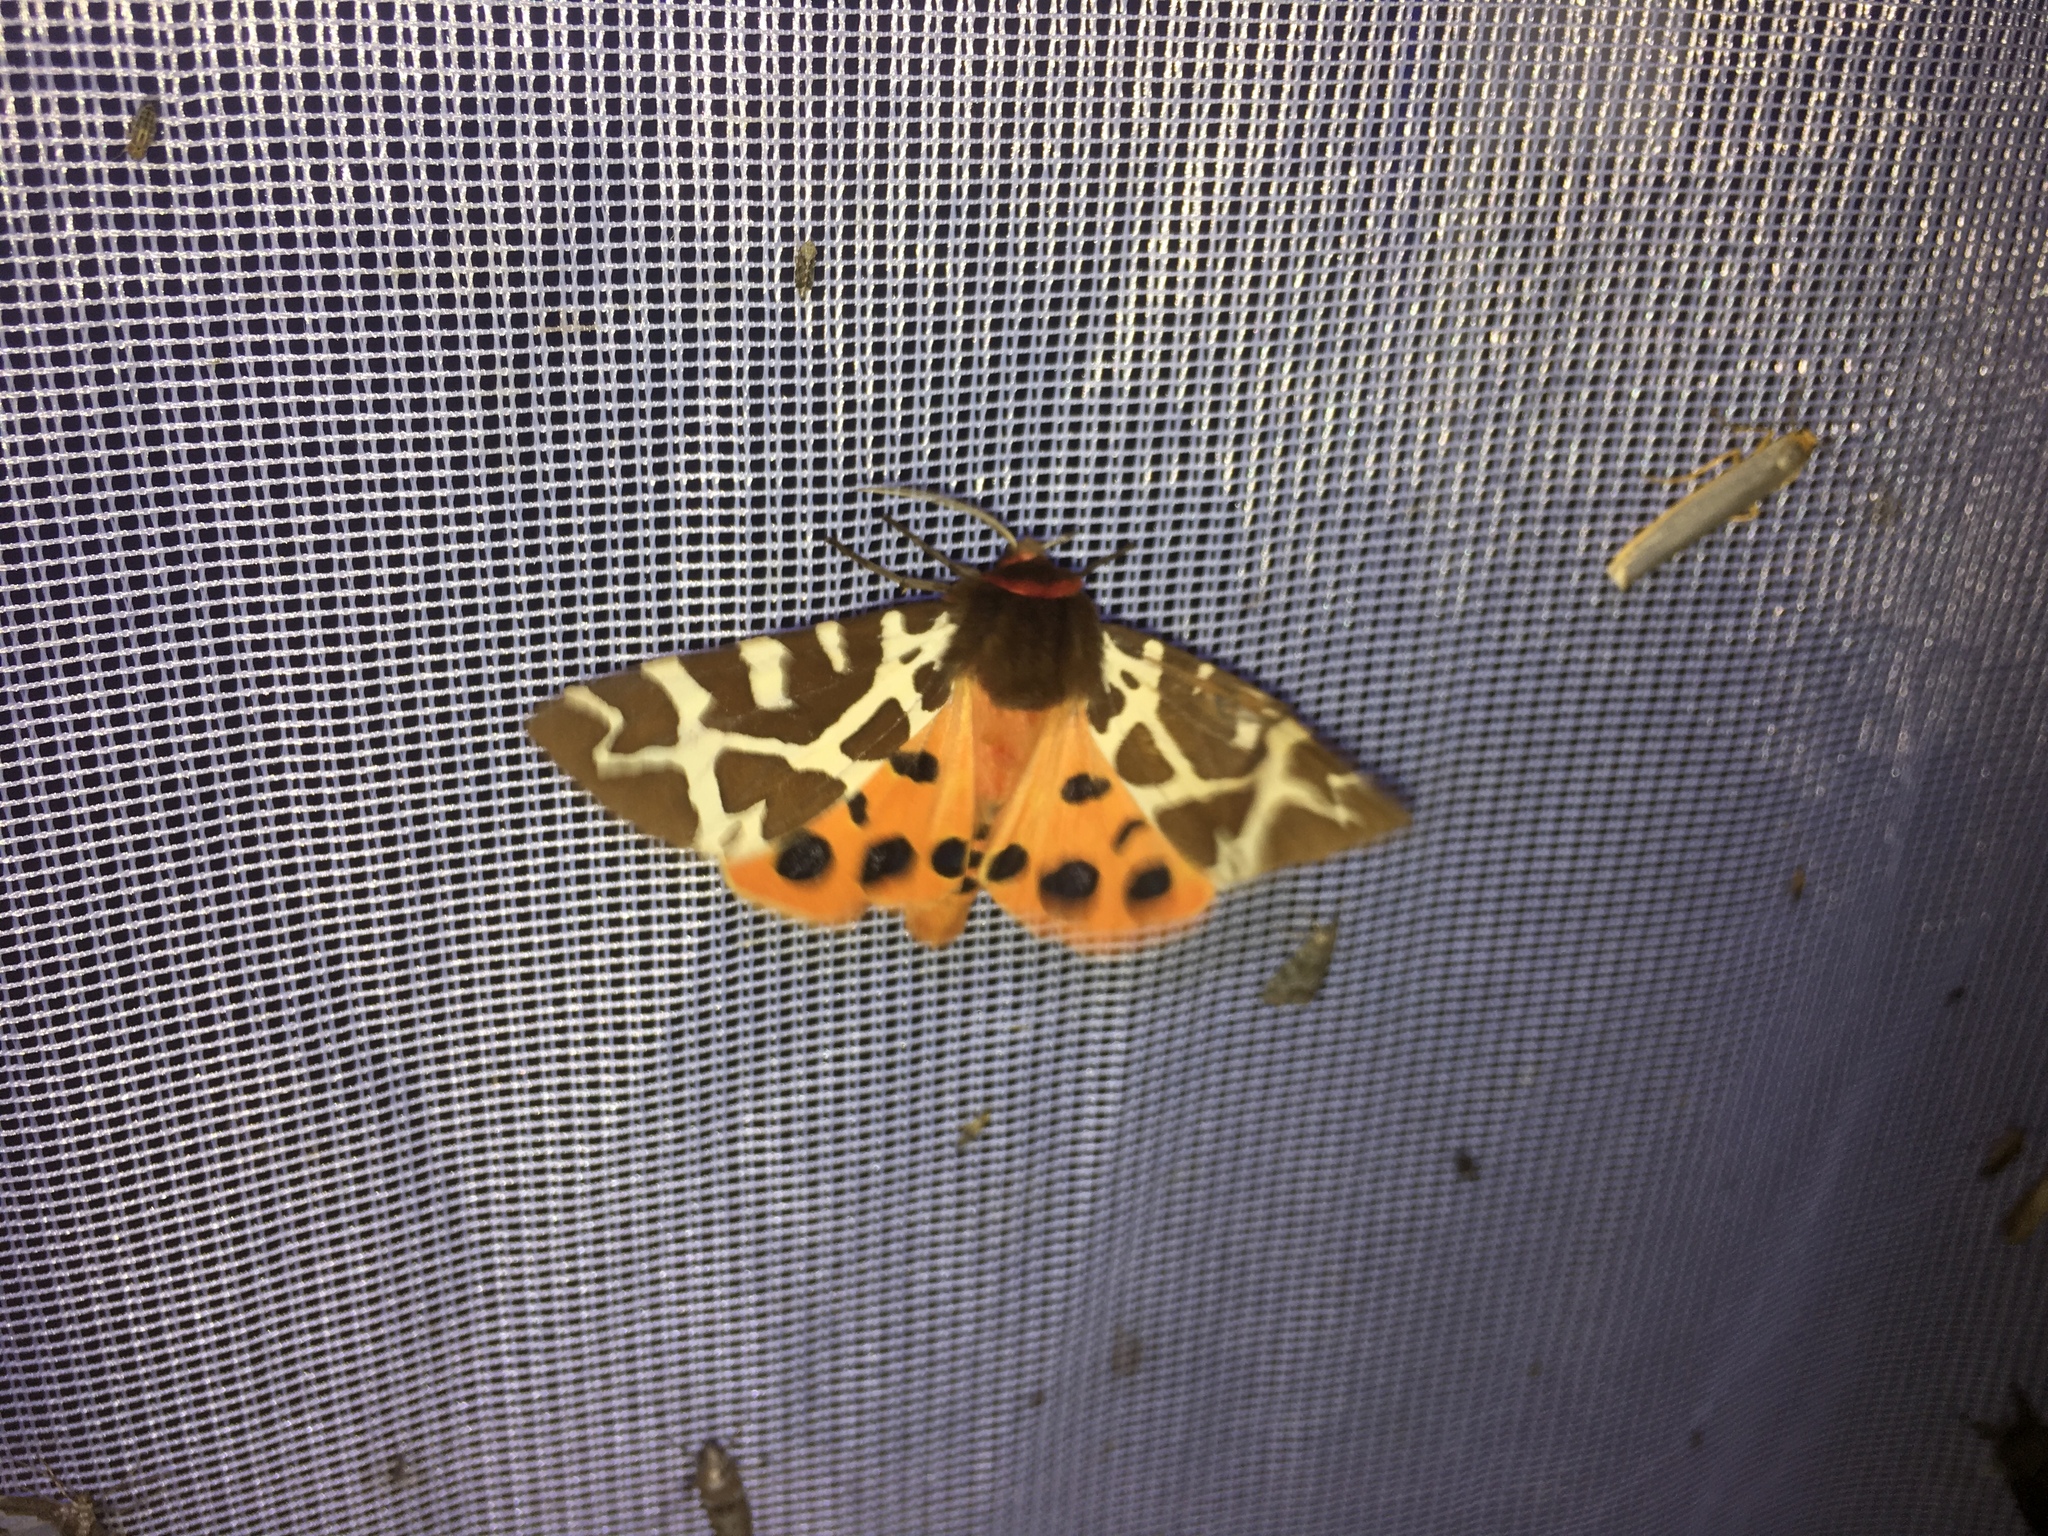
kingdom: Animalia
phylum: Arthropoda
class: Insecta
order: Lepidoptera
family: Erebidae
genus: Arctia
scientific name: Arctia caja
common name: Garden tiger
